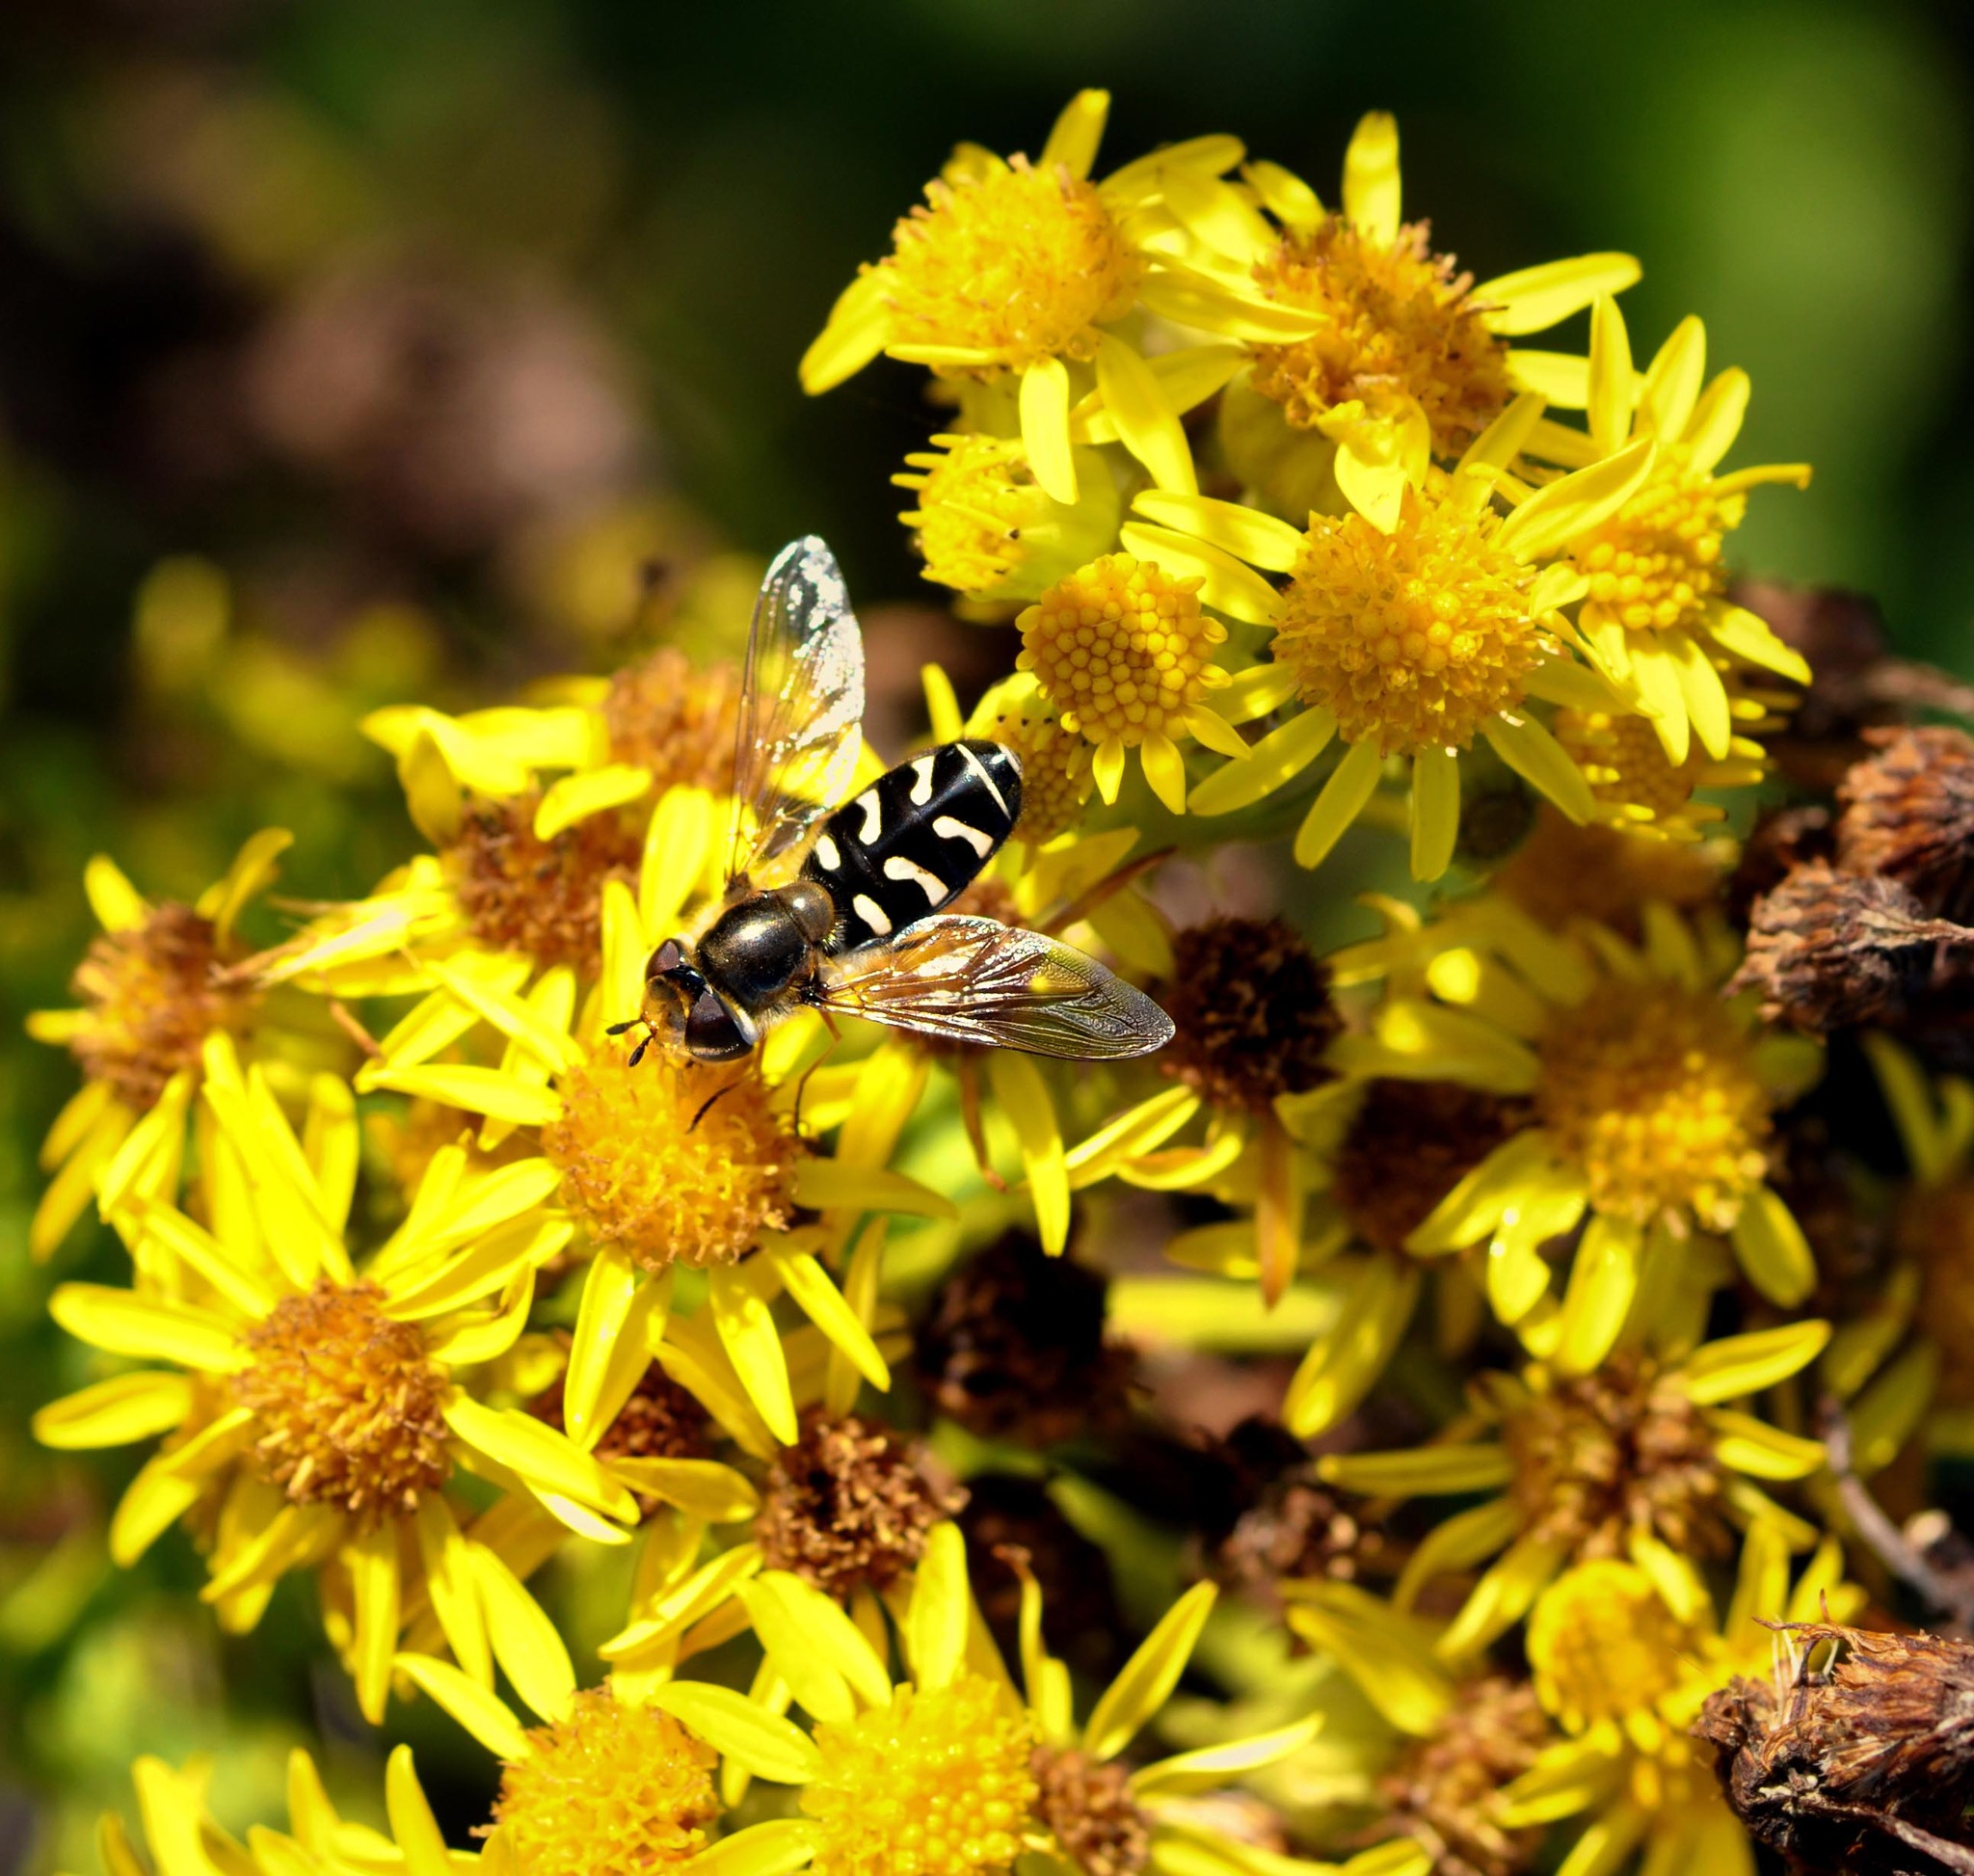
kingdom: Animalia
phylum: Arthropoda
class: Insecta
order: Diptera
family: Syrphidae
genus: Scaeva
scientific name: Scaeva pyrastri
